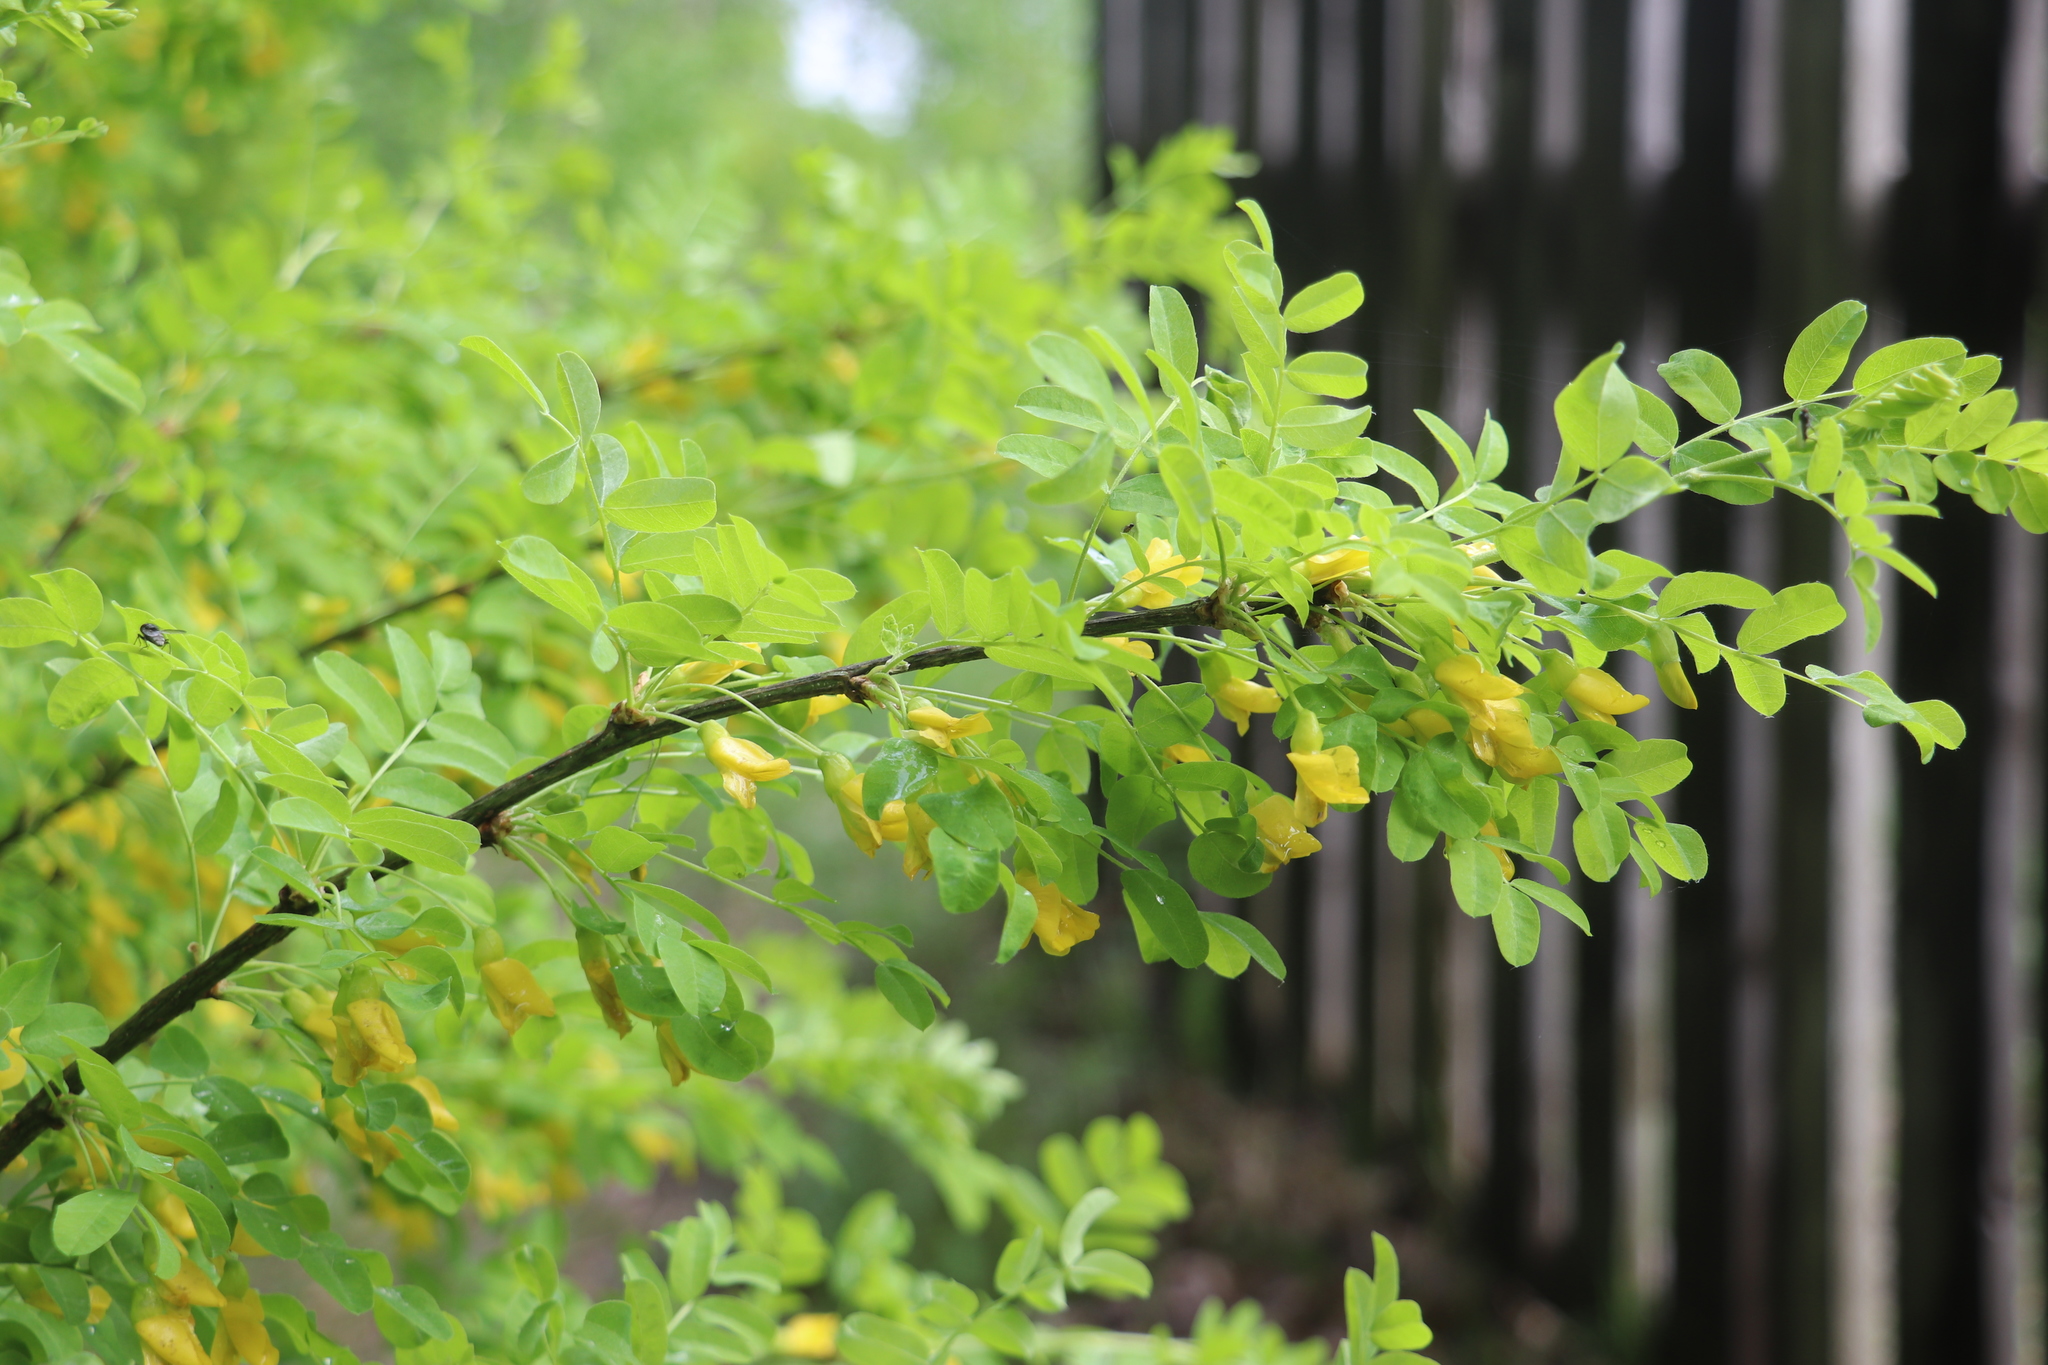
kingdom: Plantae
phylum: Tracheophyta
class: Magnoliopsida
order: Fabales
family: Fabaceae
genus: Caragana
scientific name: Caragana arborescens
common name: Siberian peashrub
